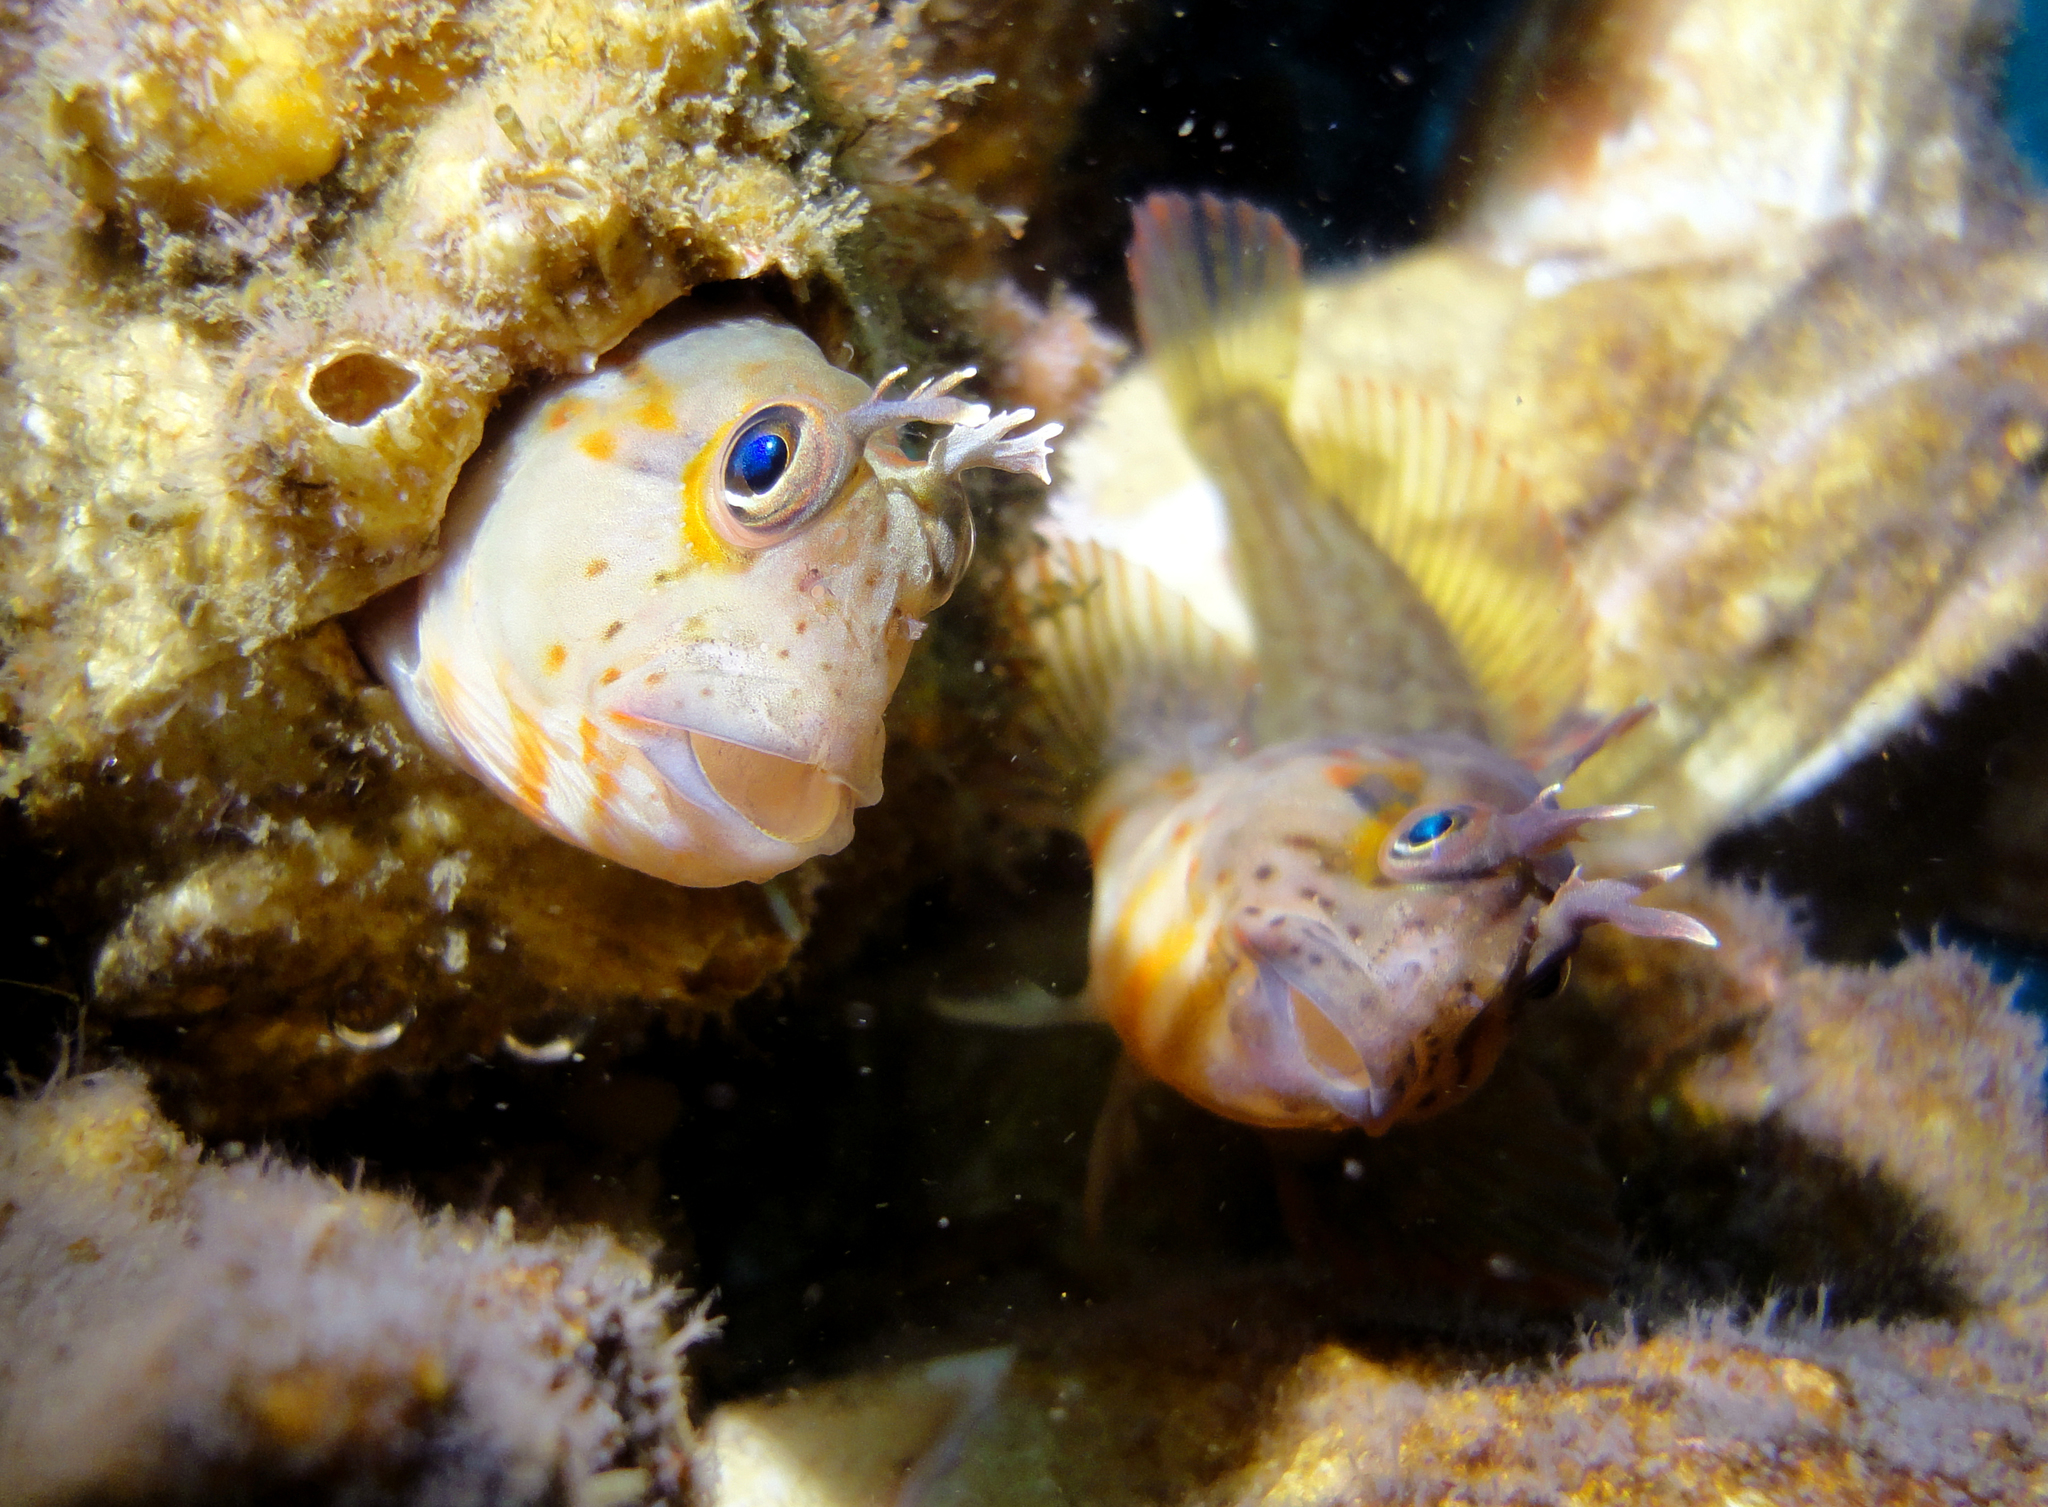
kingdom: Animalia
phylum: Chordata
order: Perciformes
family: Blenniidae
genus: Hypsoblennius
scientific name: Hypsoblennius sordidus
